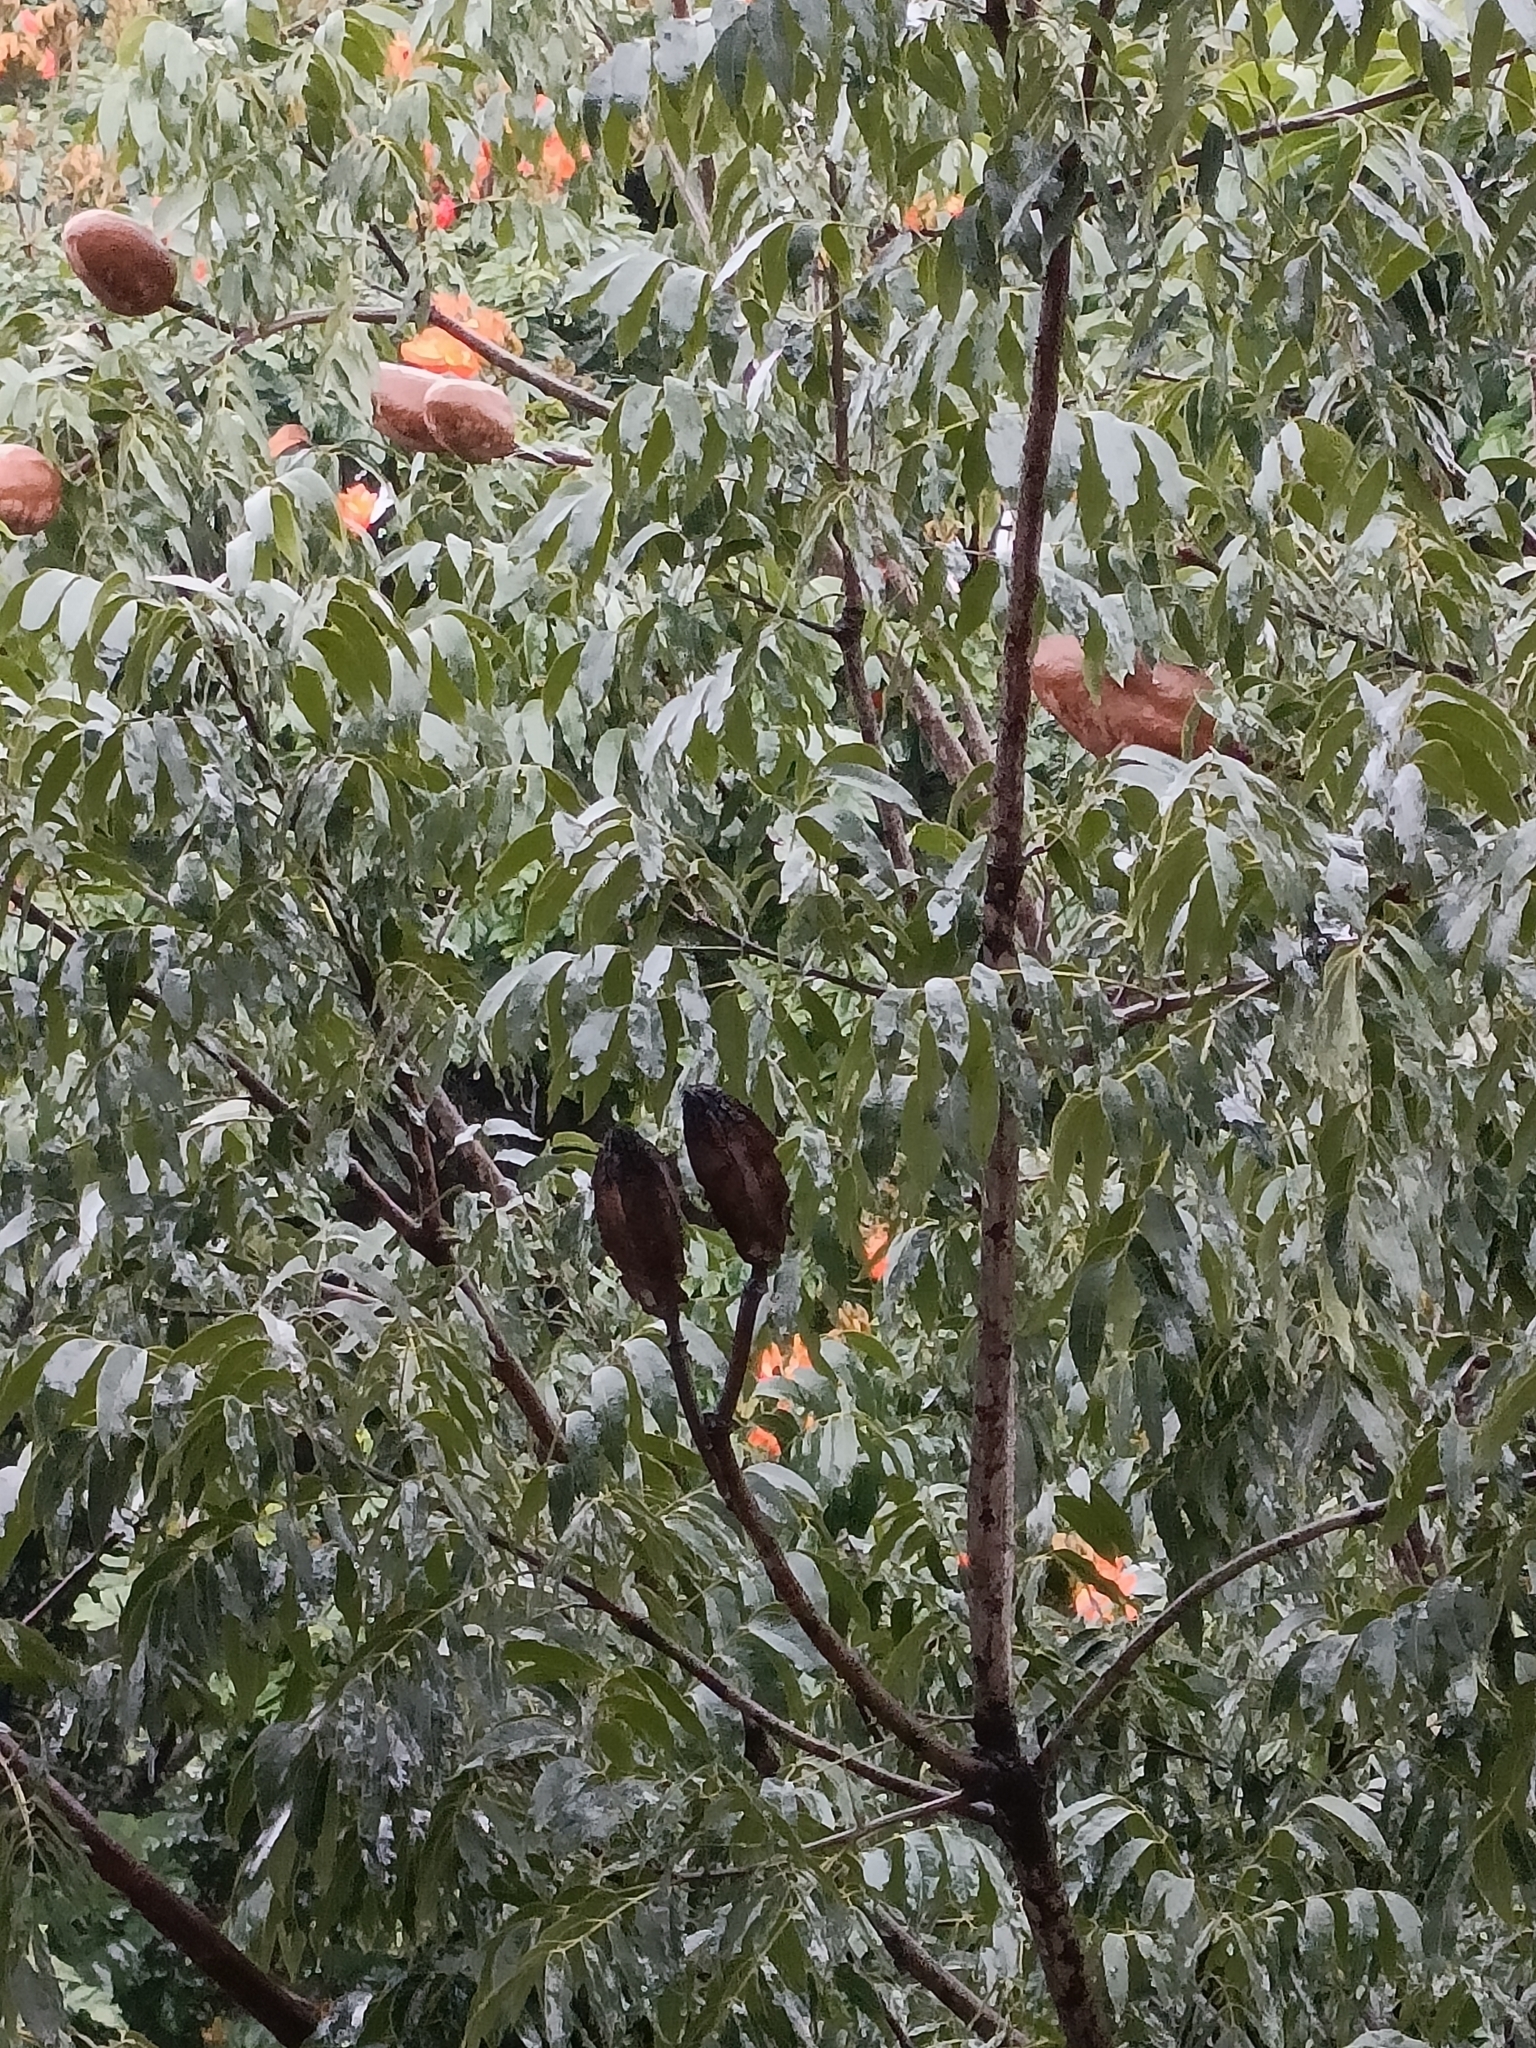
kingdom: Plantae
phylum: Tracheophyta
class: Magnoliopsida
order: Sapindales
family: Meliaceae
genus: Swietenia
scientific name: Swietenia mahagoni
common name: West indian mahogany
